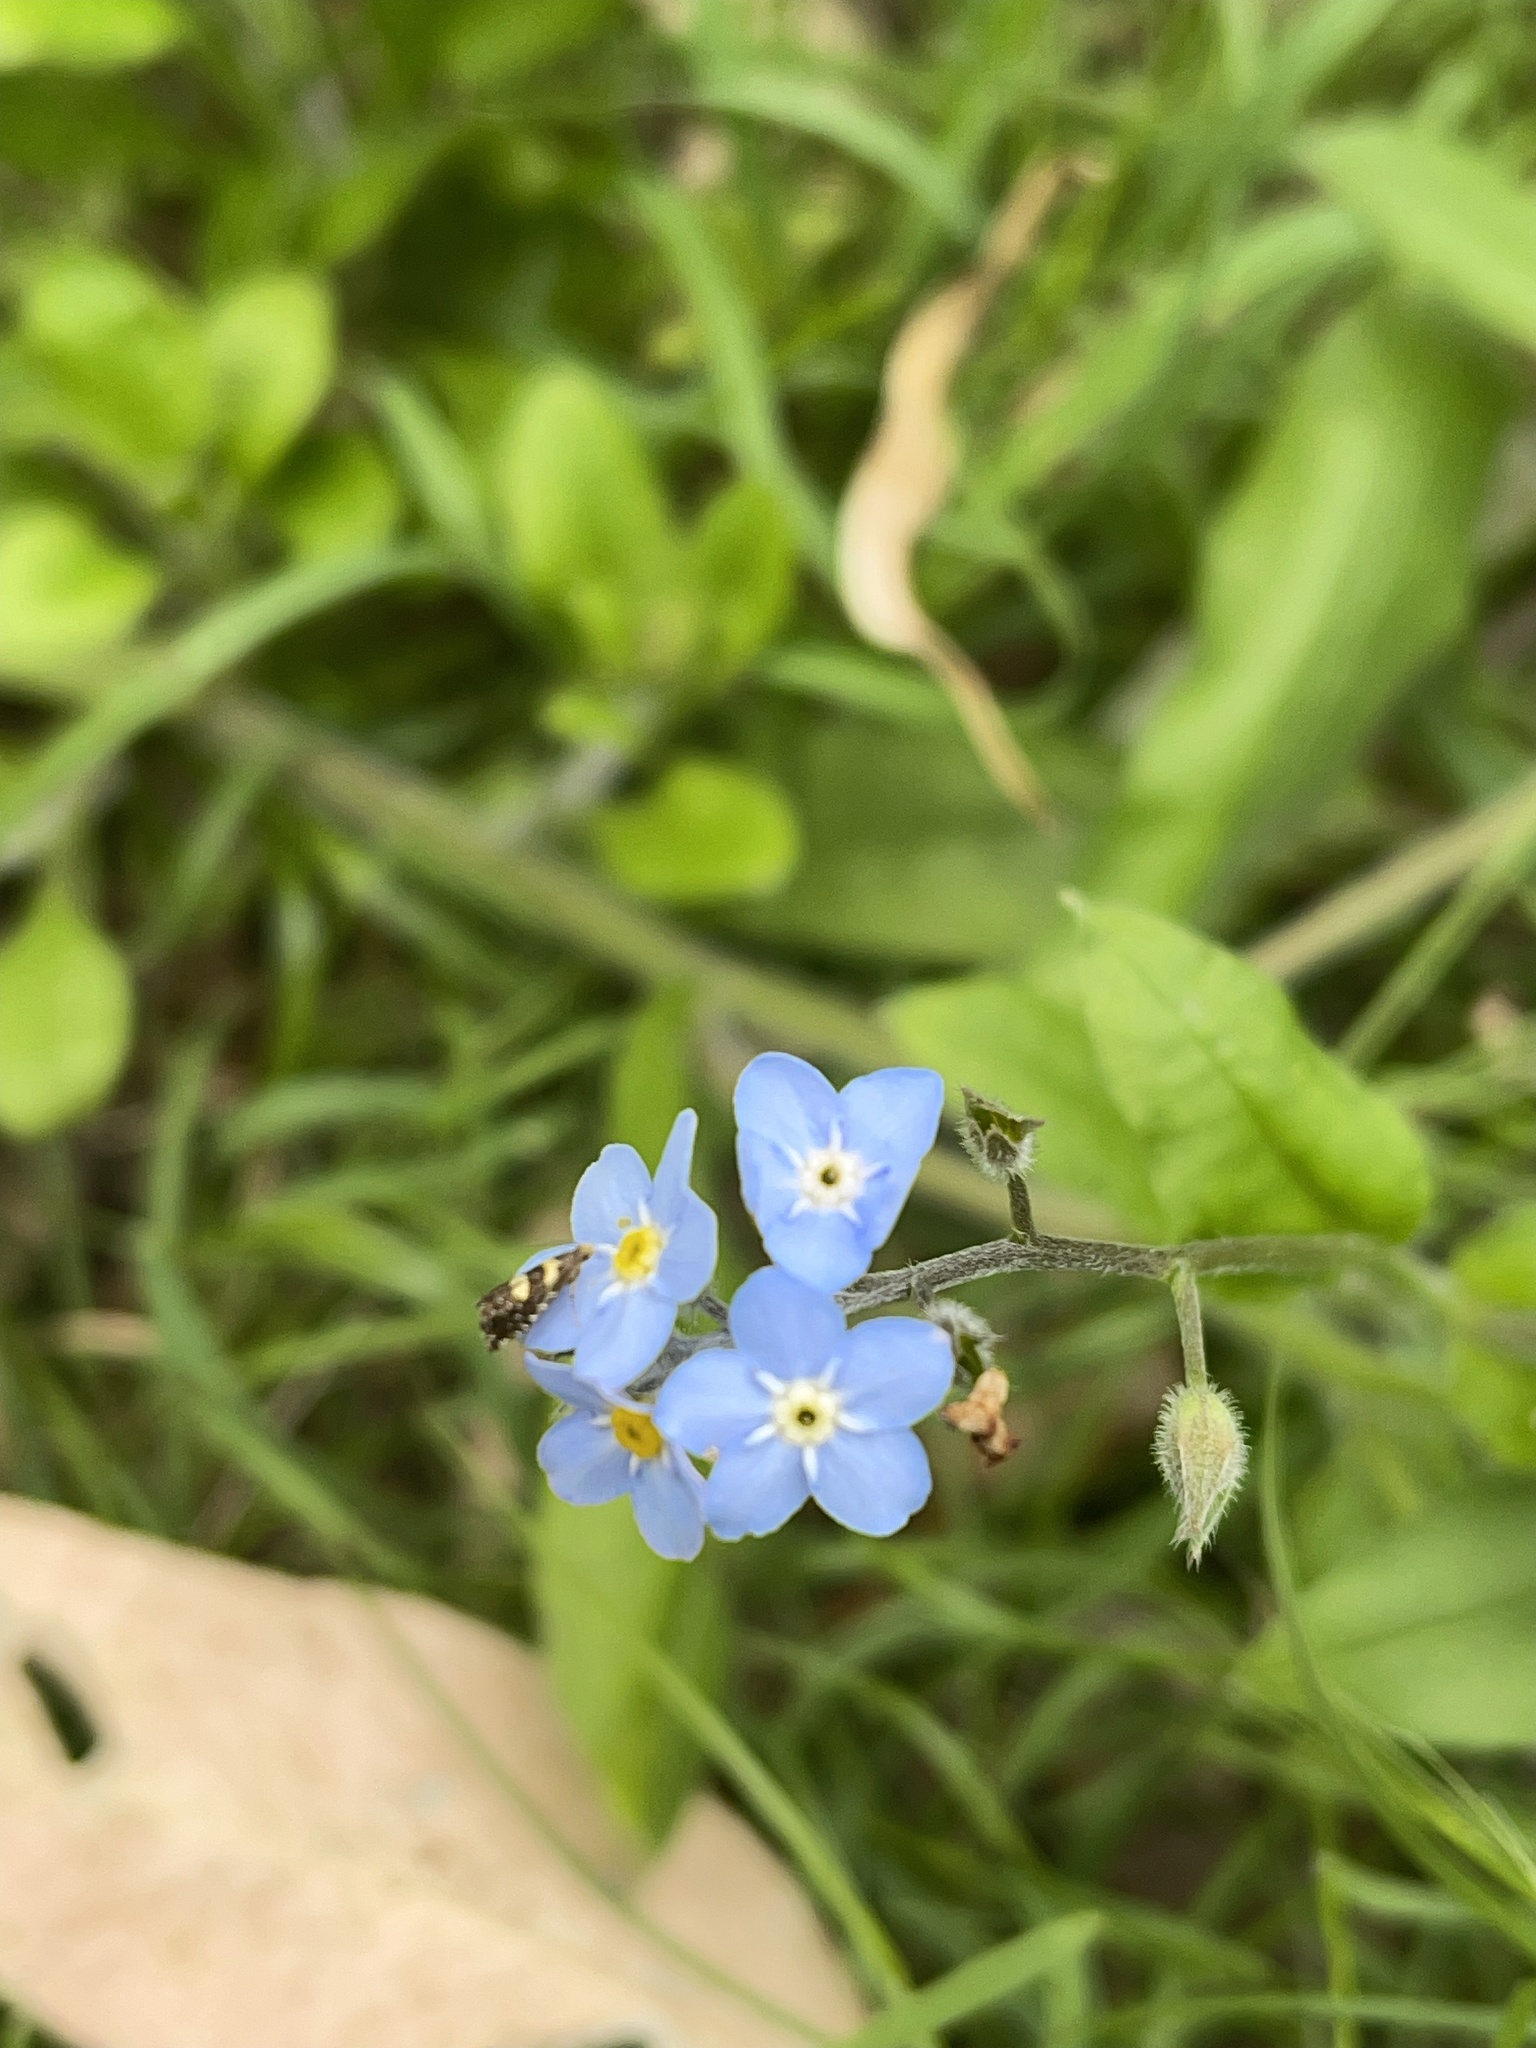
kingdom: Plantae
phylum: Tracheophyta
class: Magnoliopsida
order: Boraginales
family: Boraginaceae
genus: Myosotis
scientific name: Myosotis sylvatica
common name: Wood forget-me-not
